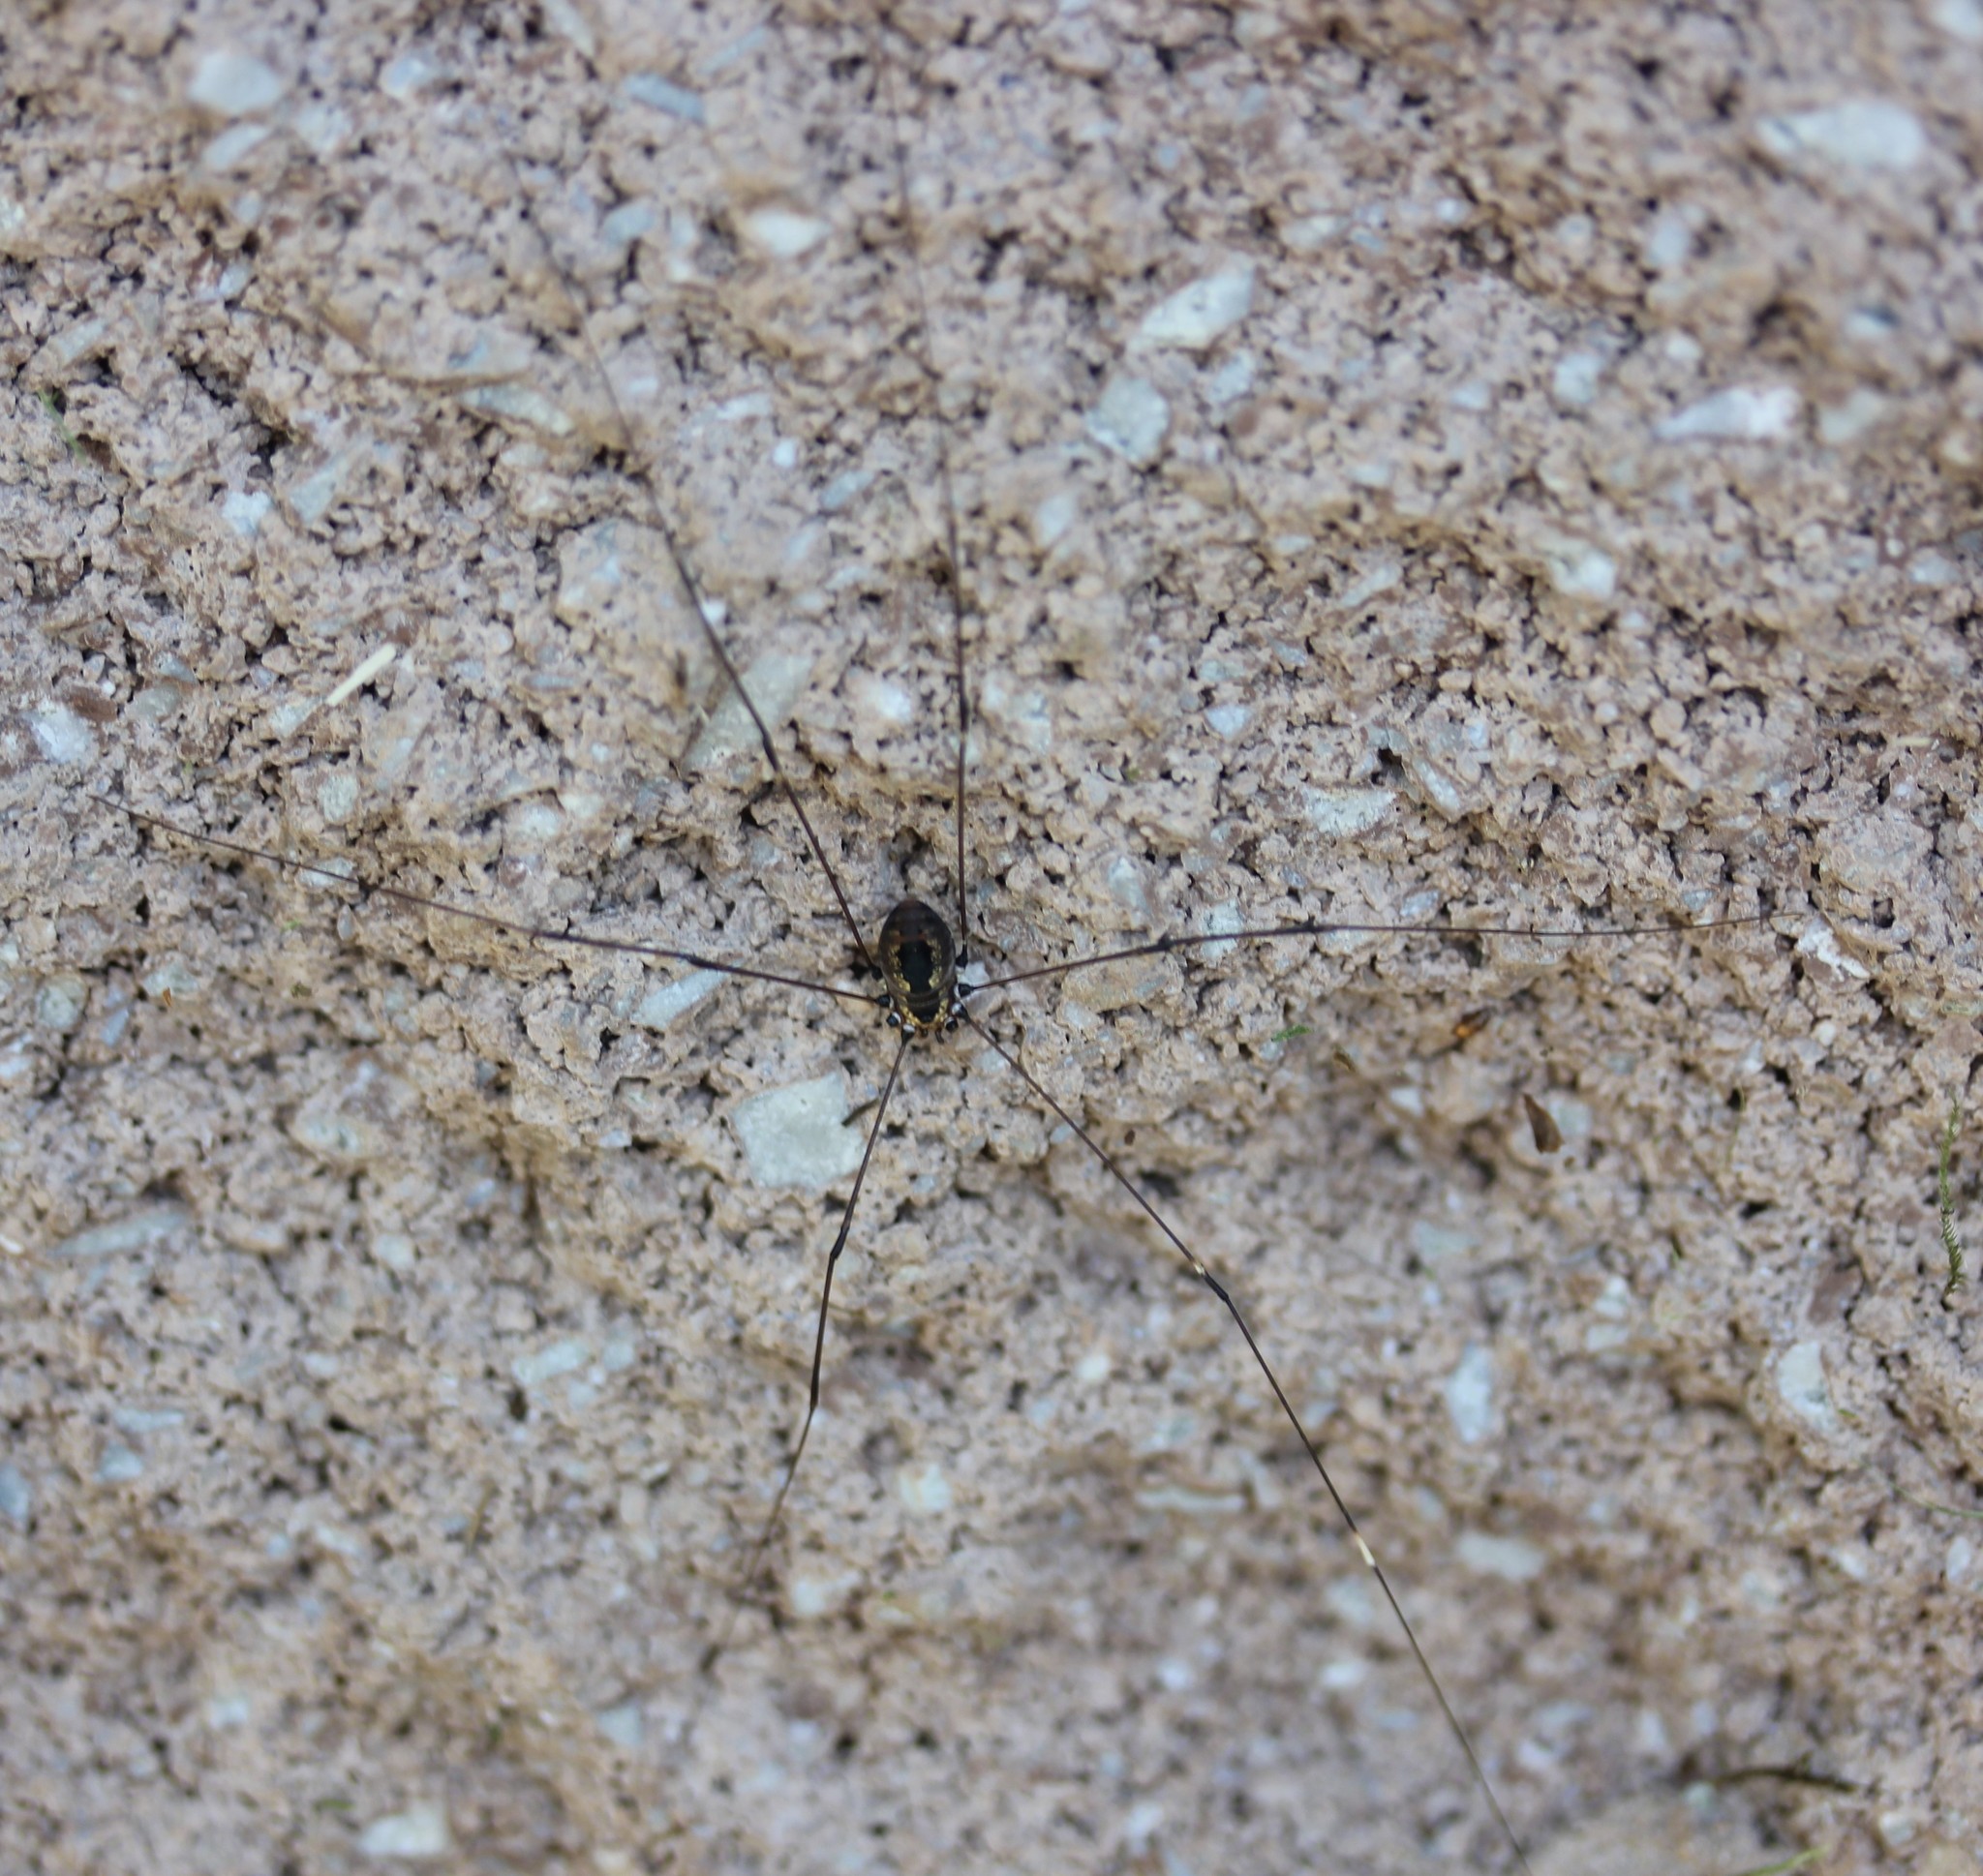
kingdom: Animalia
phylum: Arthropoda
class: Arachnida
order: Opiliones
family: Sclerosomatidae
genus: Leiobunum
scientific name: Leiobunum aldrichi
